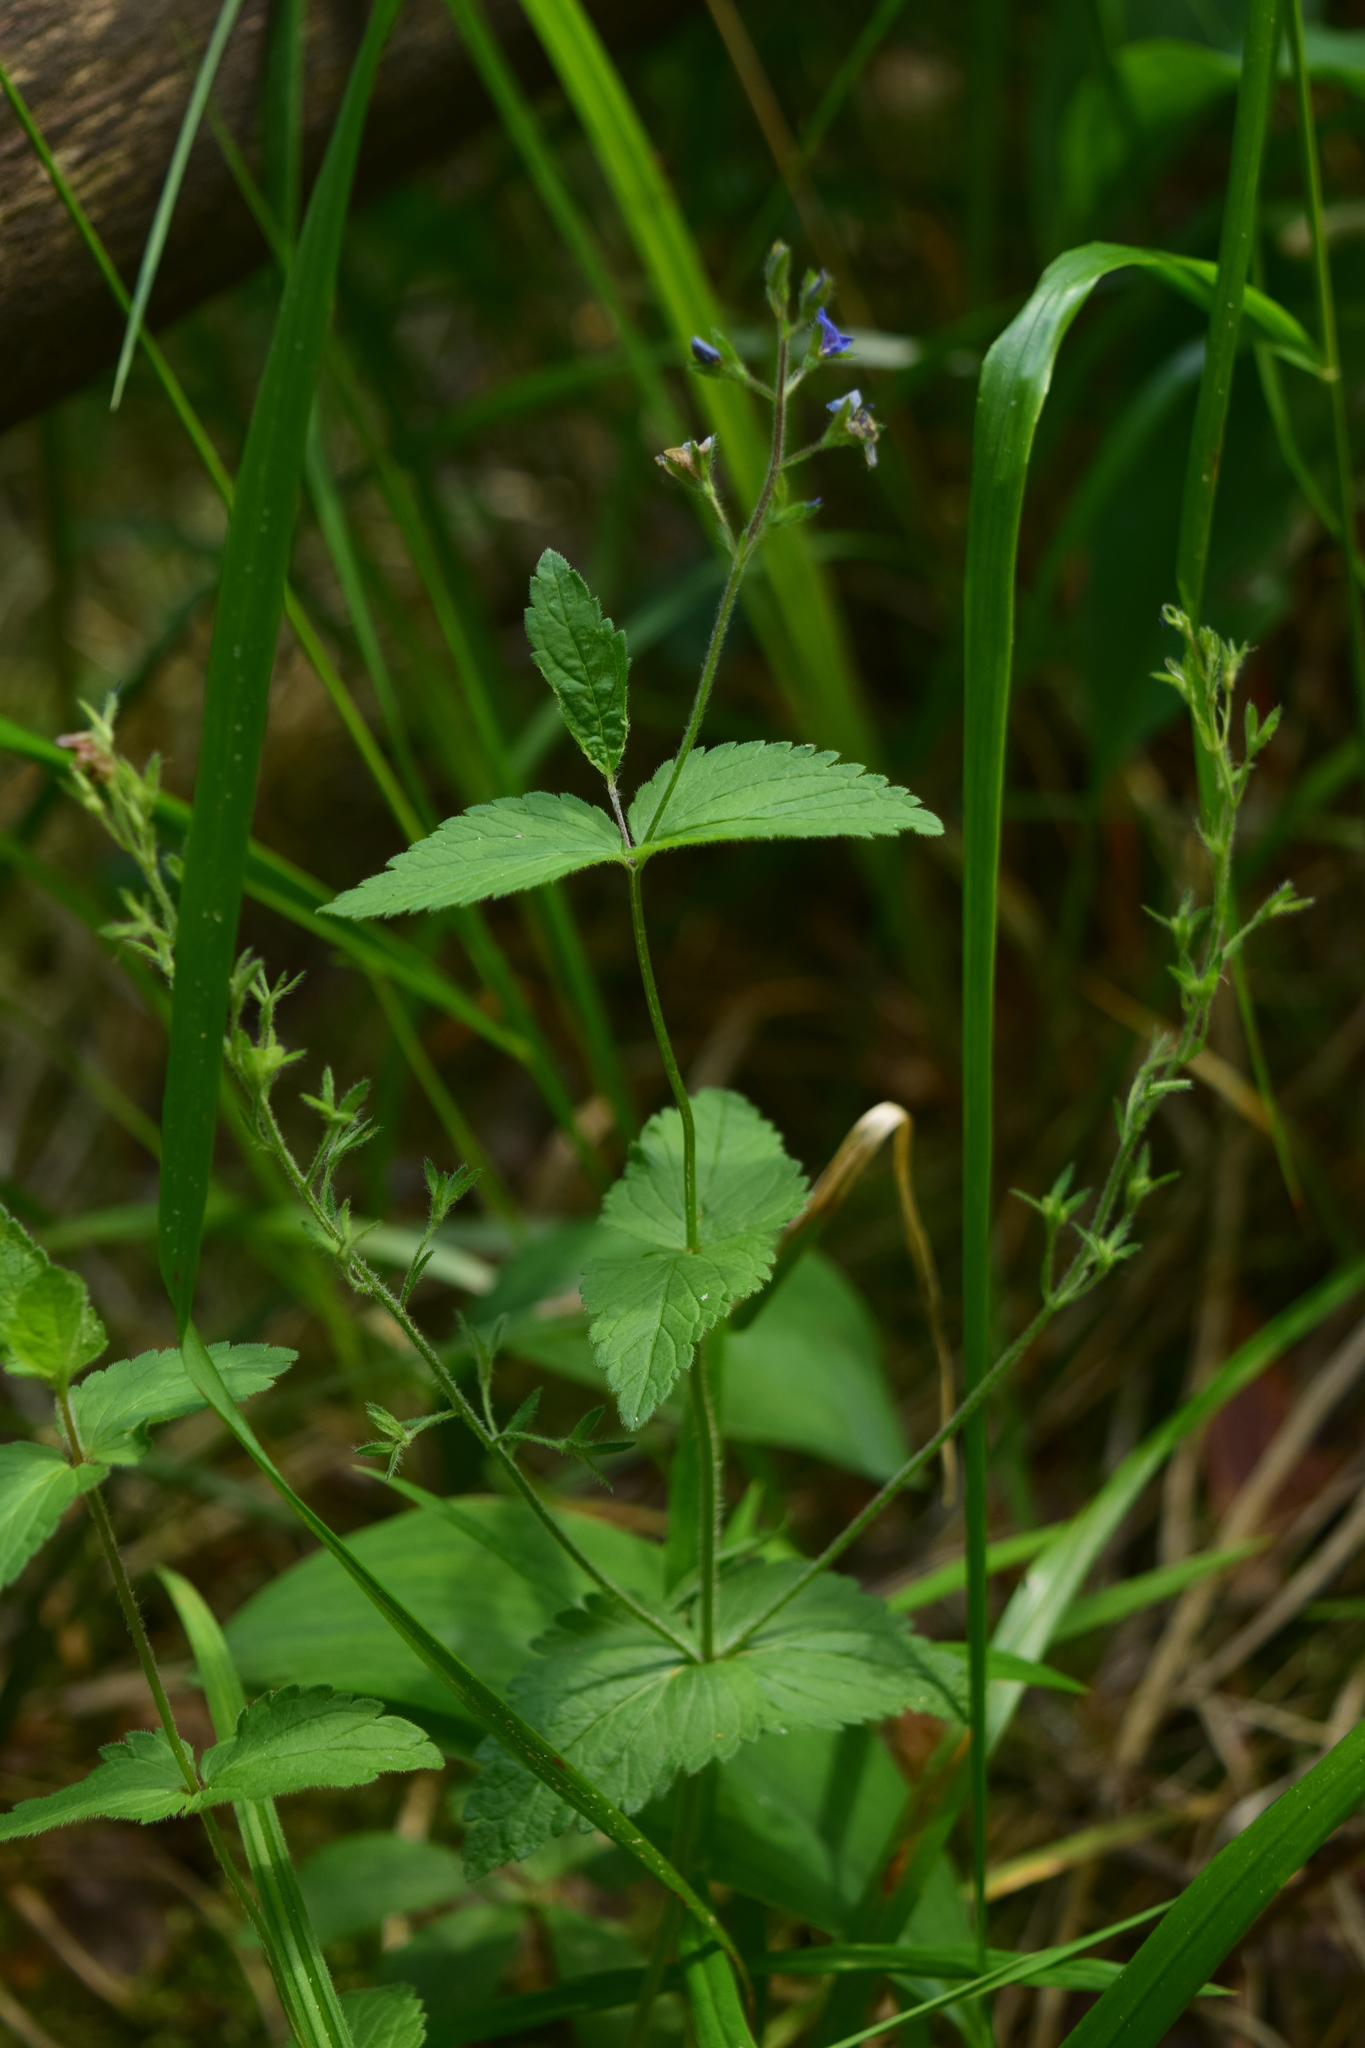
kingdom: Plantae
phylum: Tracheophyta
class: Magnoliopsida
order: Lamiales
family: Plantaginaceae
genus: Veronica
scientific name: Veronica chamaedrys
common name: Germander speedwell
